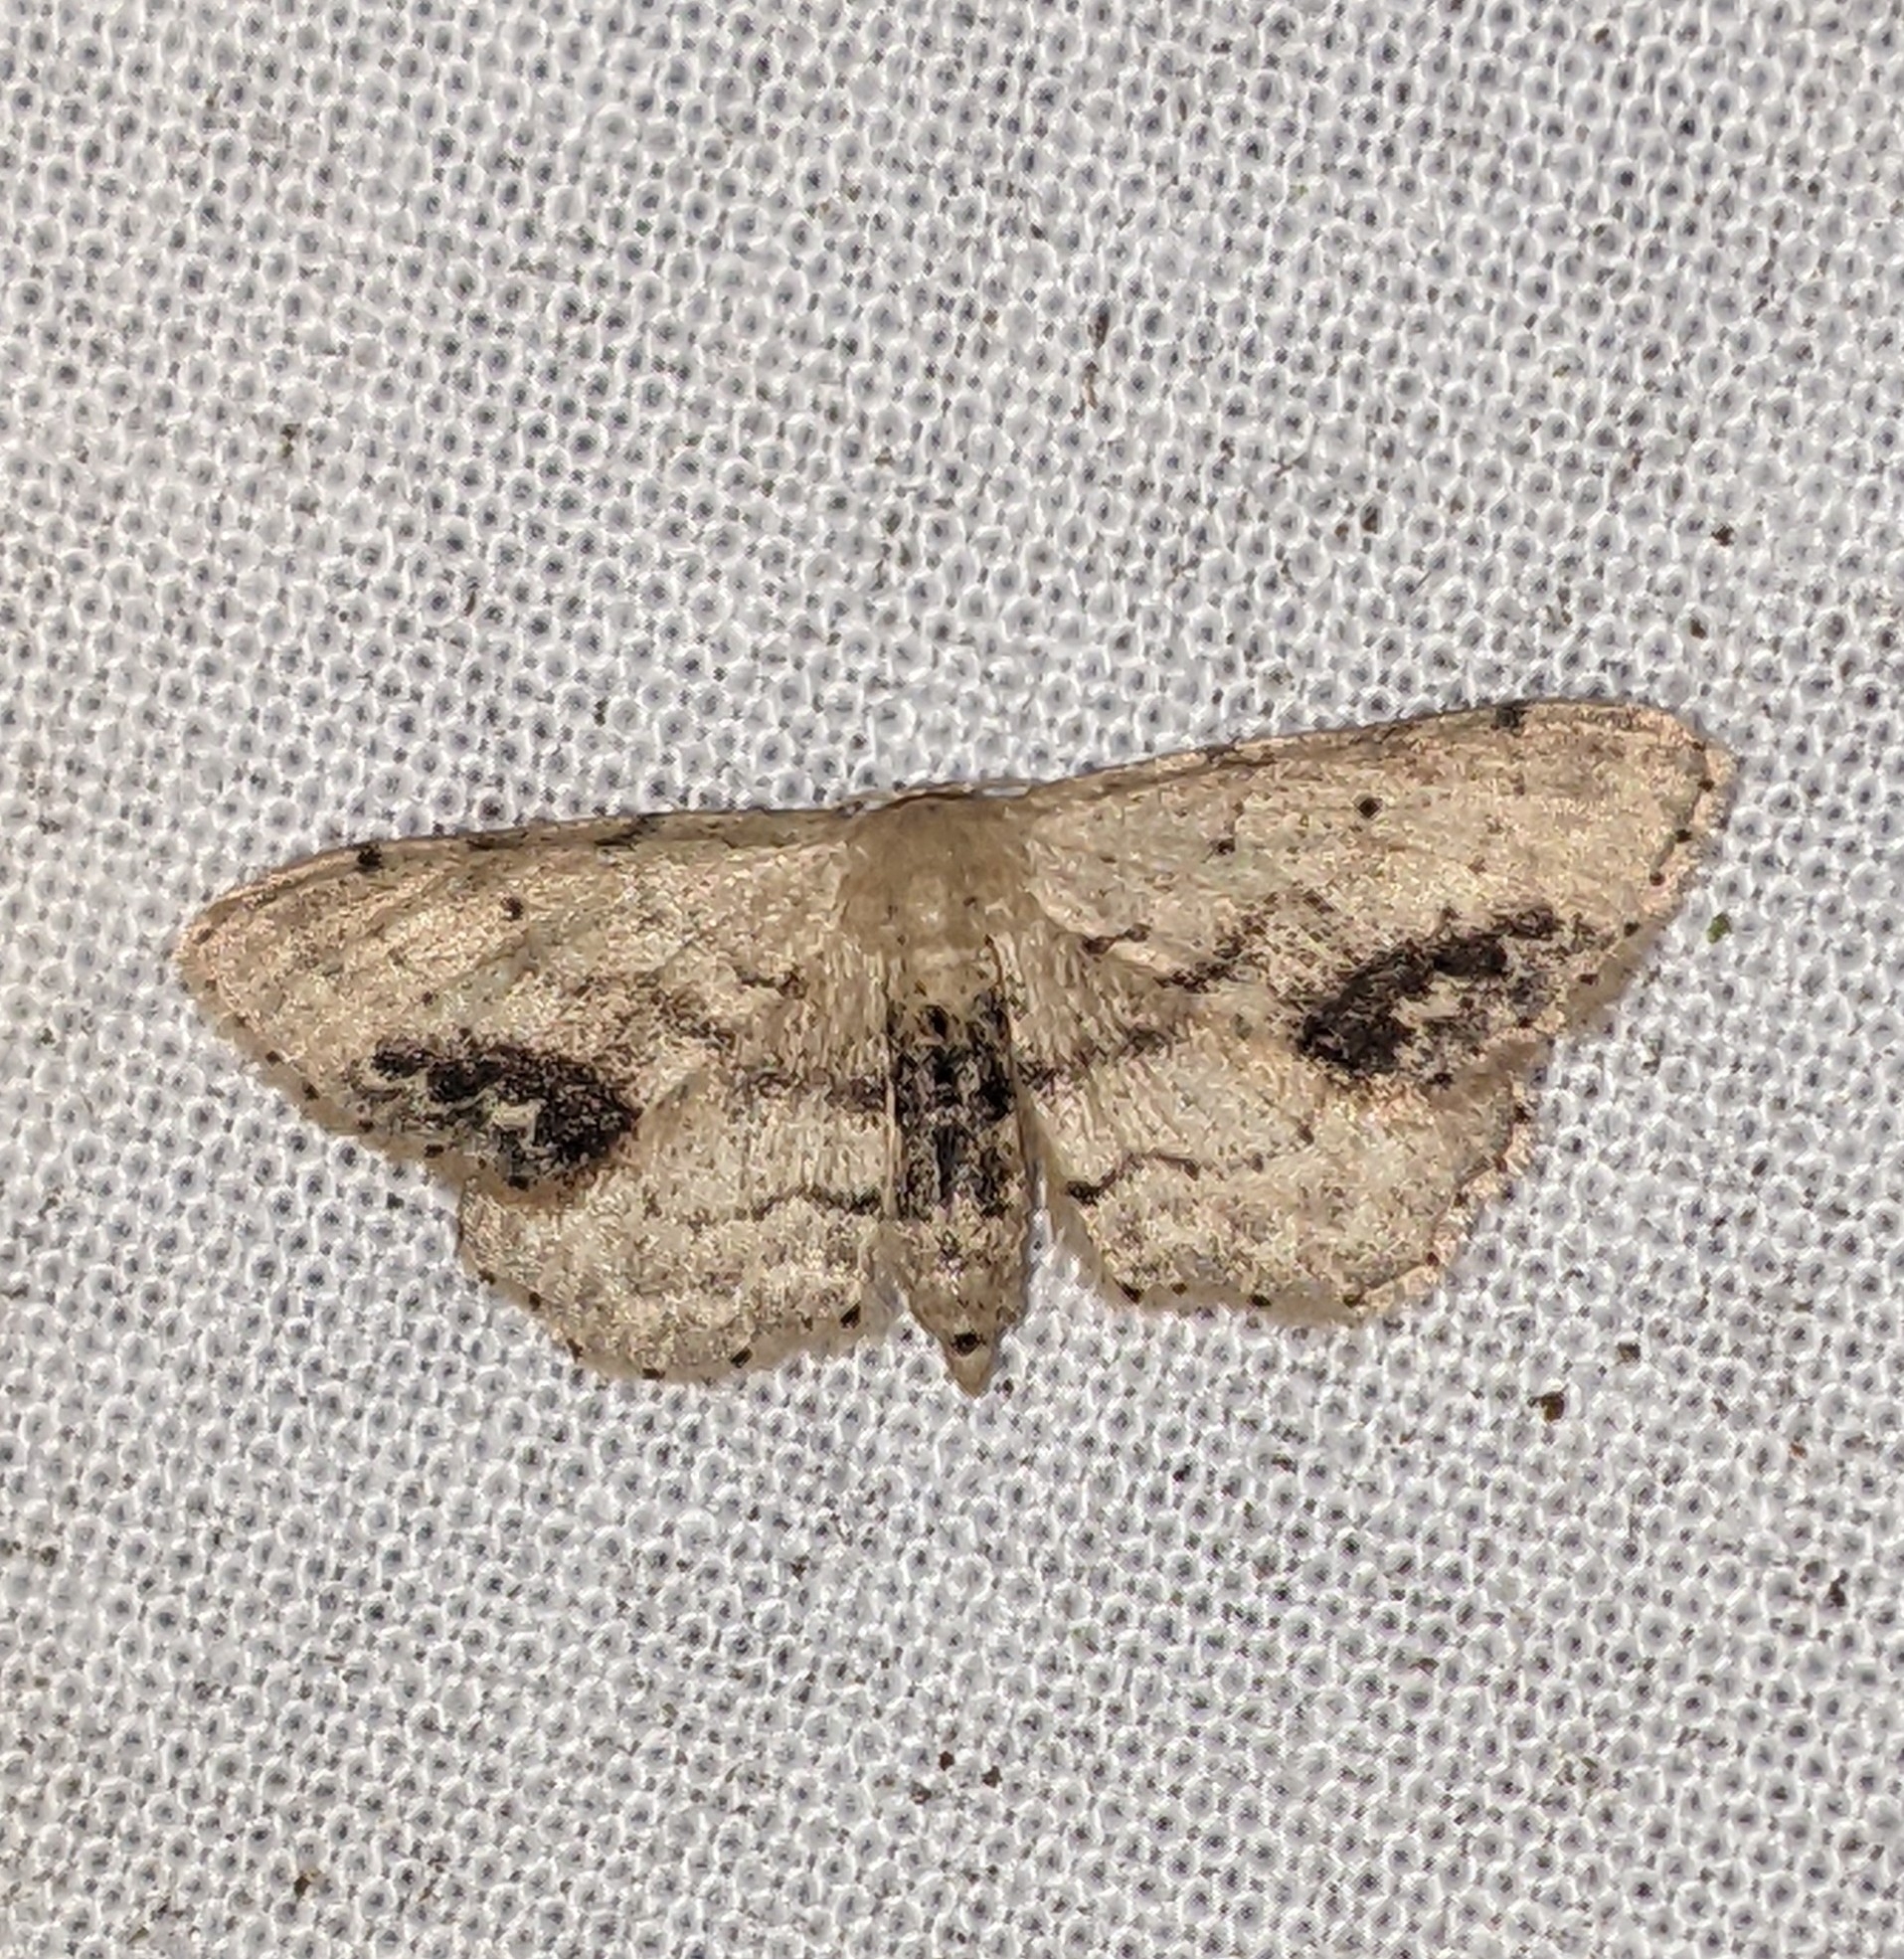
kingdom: Animalia
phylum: Arthropoda
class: Insecta
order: Lepidoptera
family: Geometridae
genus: Idaea
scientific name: Idaea dimidiata
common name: Single-dotted wave
